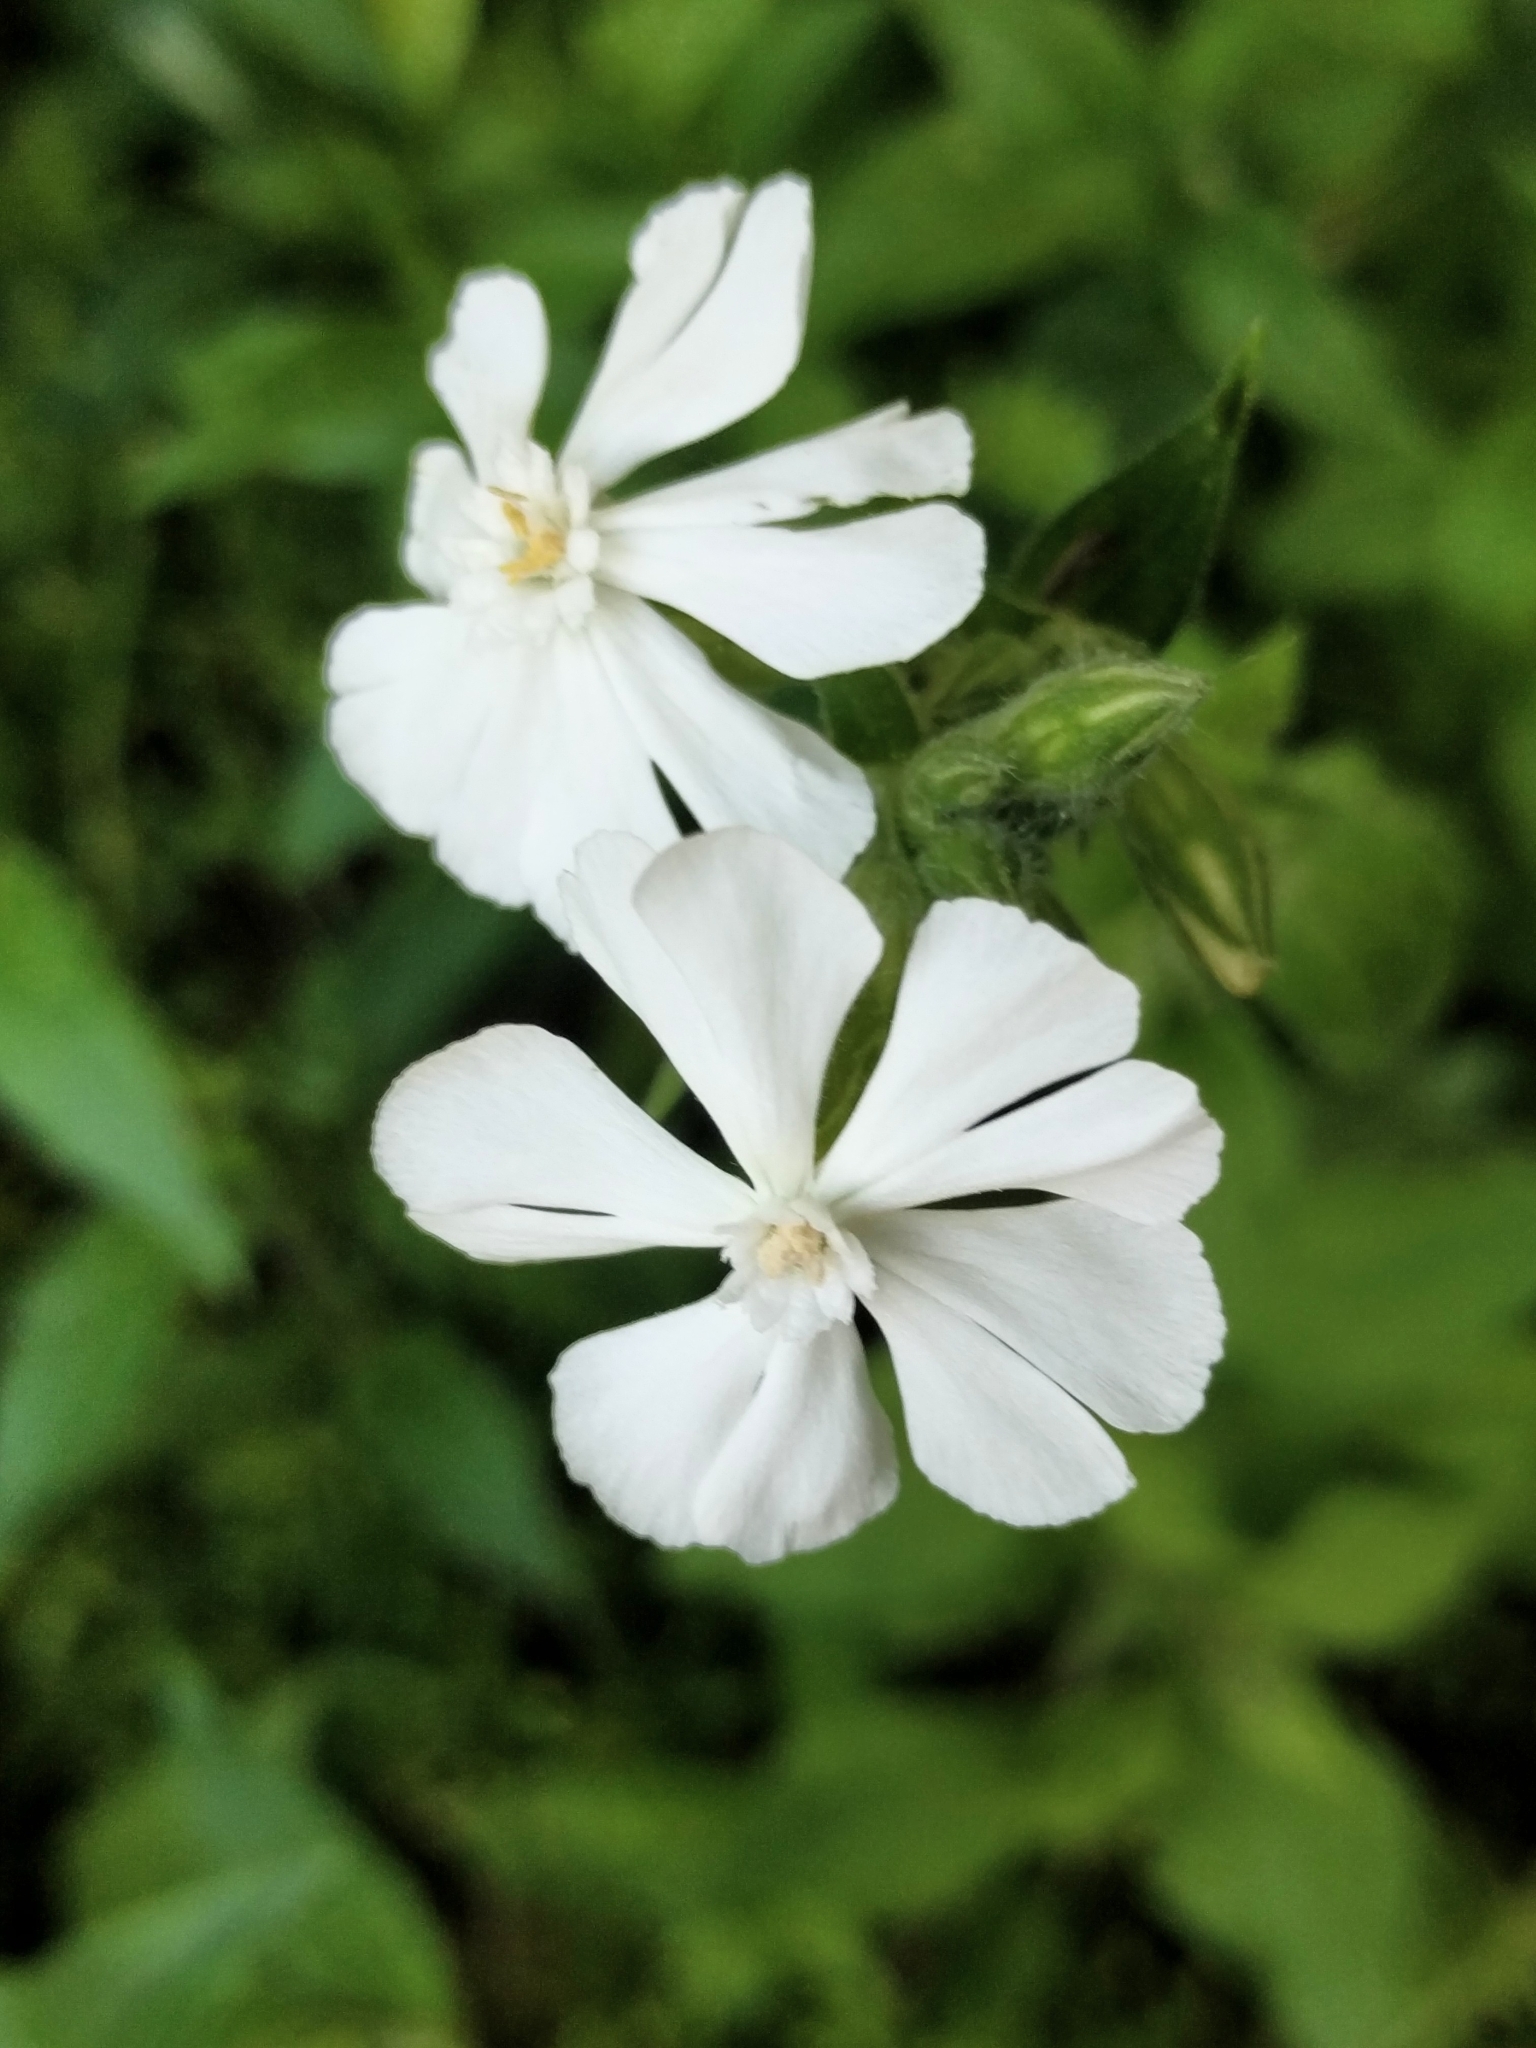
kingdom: Plantae
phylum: Tracheophyta
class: Magnoliopsida
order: Caryophyllales
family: Caryophyllaceae
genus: Silene
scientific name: Silene latifolia
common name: White campion
